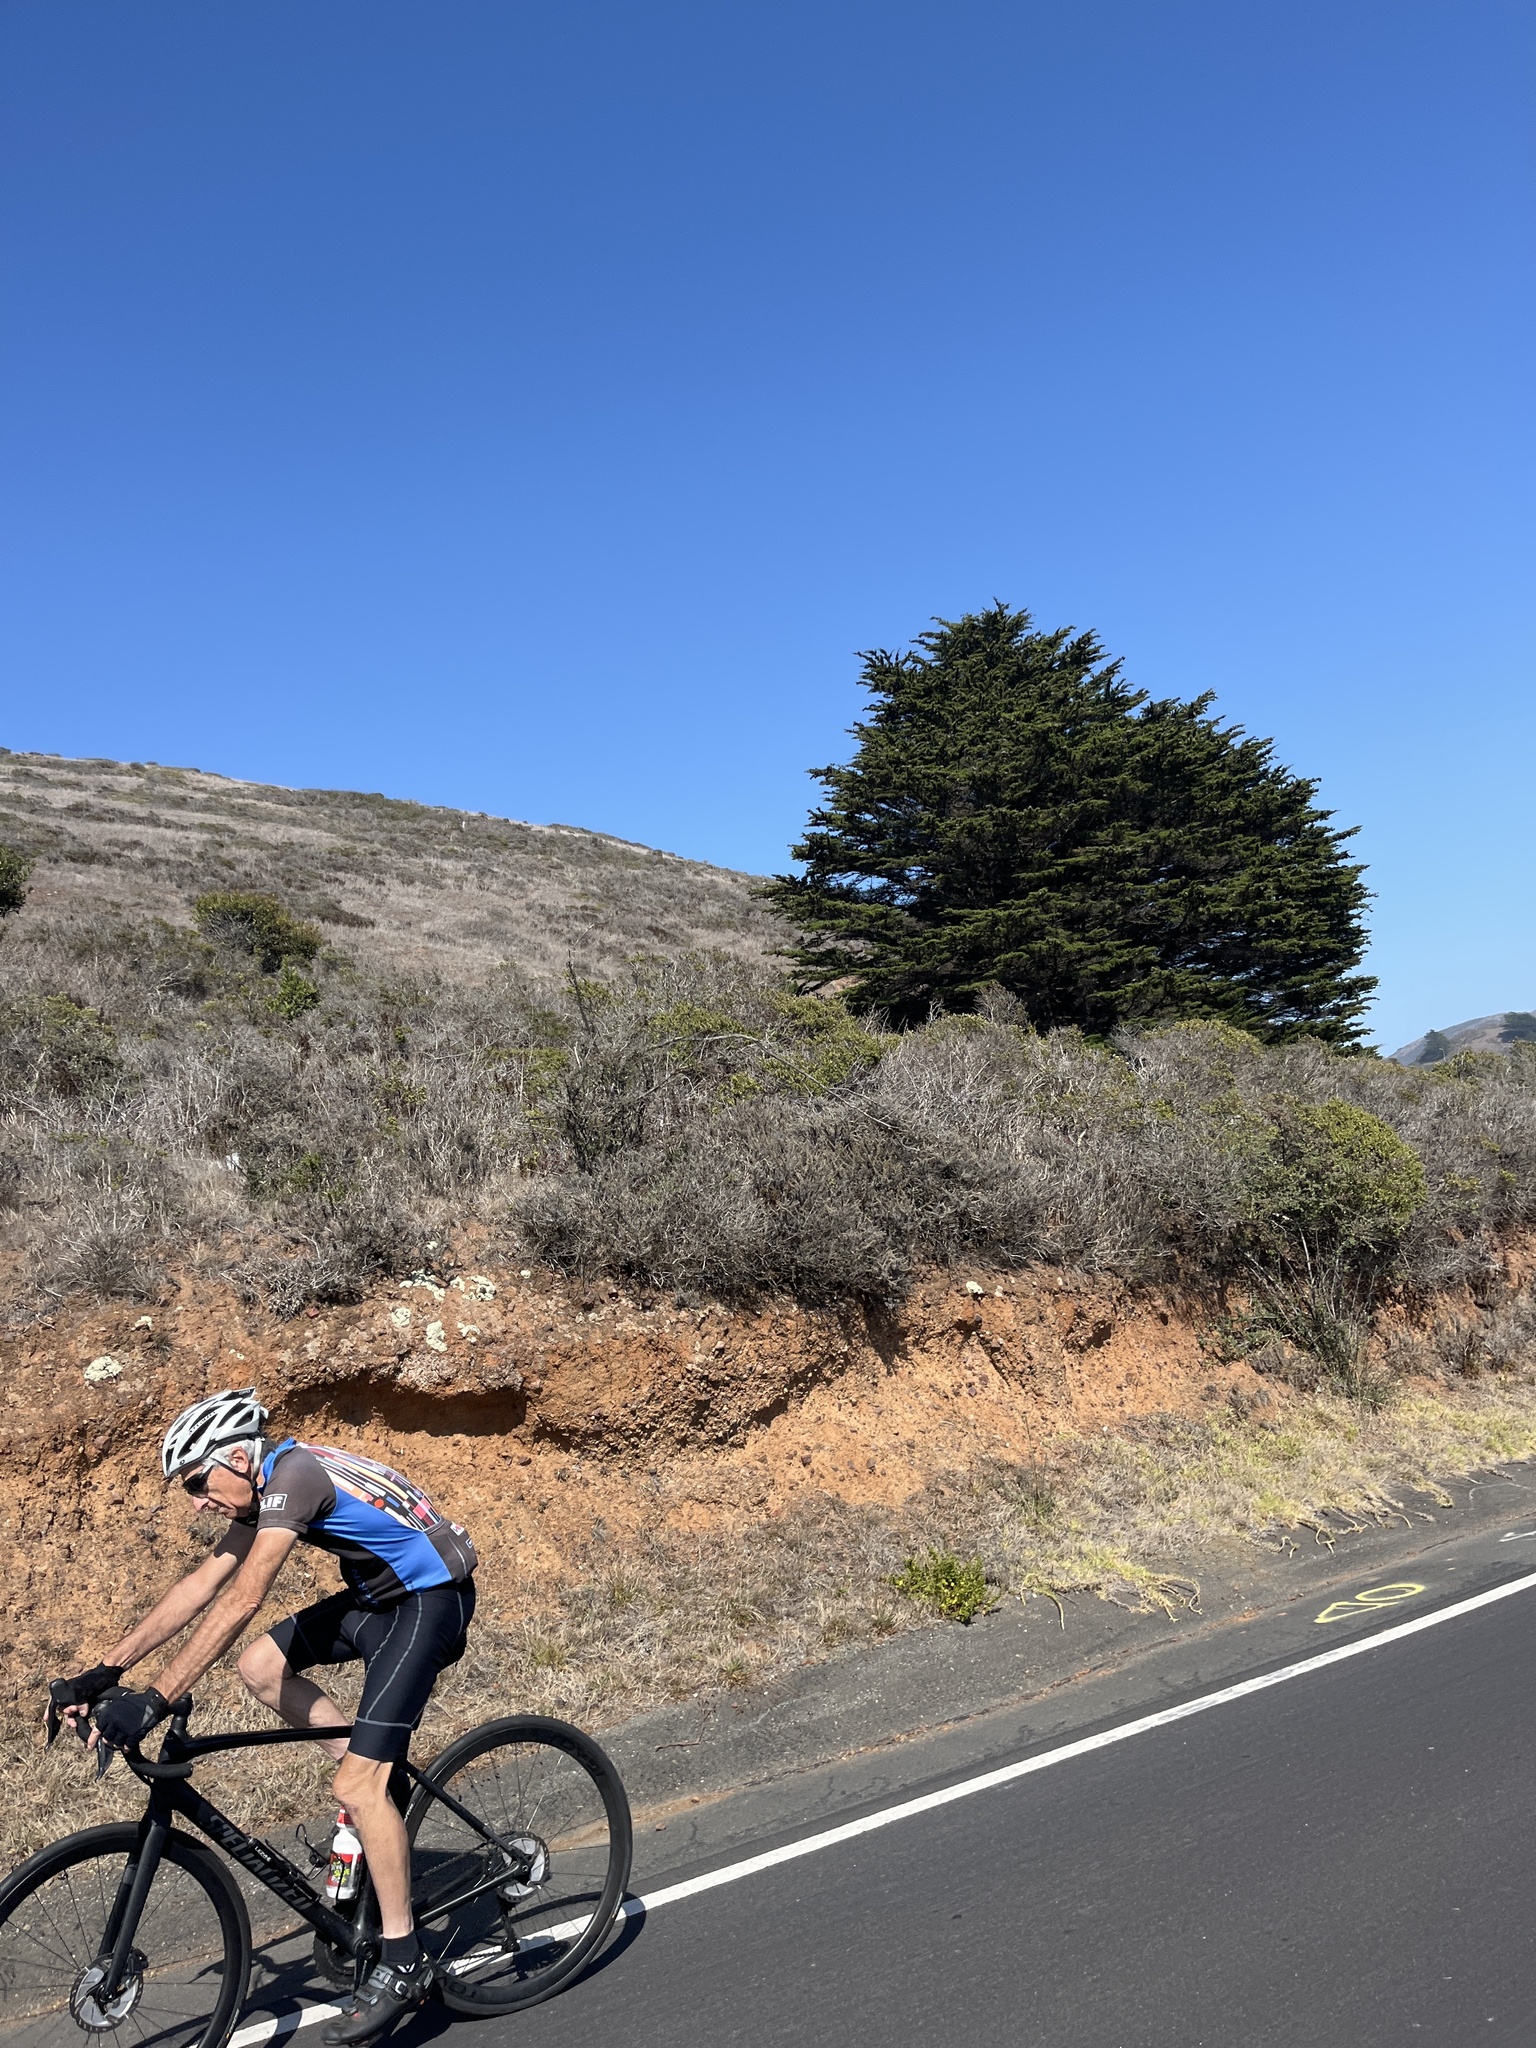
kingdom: Plantae
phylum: Tracheophyta
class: Pinopsida
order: Pinales
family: Cupressaceae
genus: Cupressus
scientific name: Cupressus macrocarpa
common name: Monterey cypress
